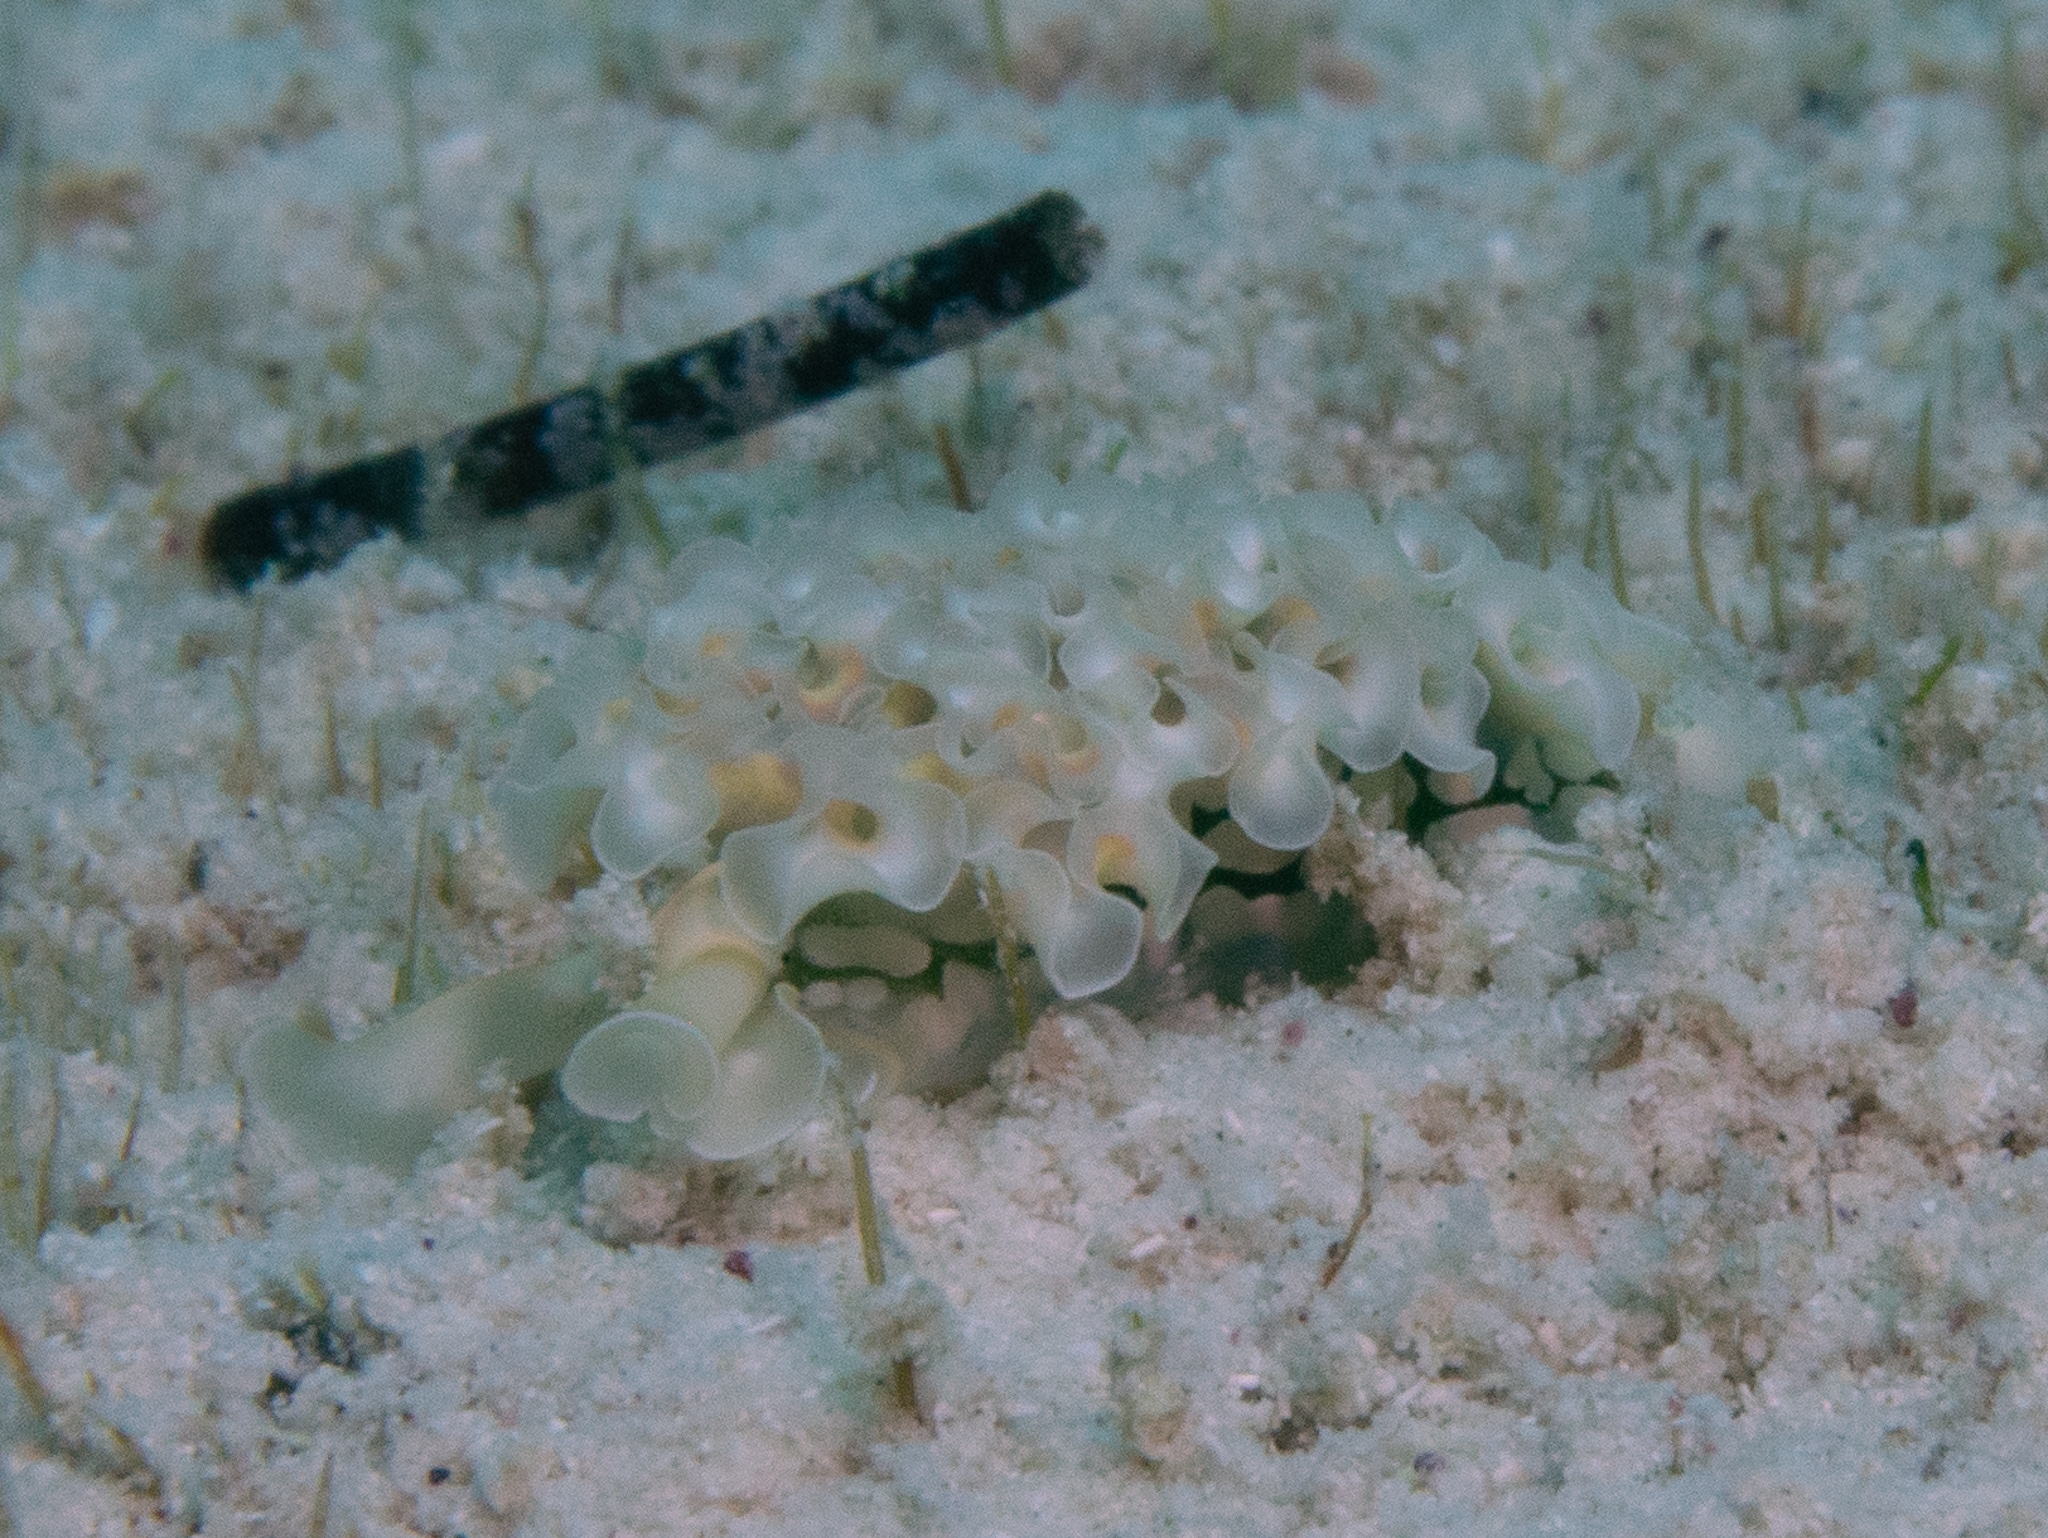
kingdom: Animalia
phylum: Mollusca
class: Gastropoda
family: Plakobranchidae
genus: Elysia
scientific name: Elysia crispata
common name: Lettuce slug
